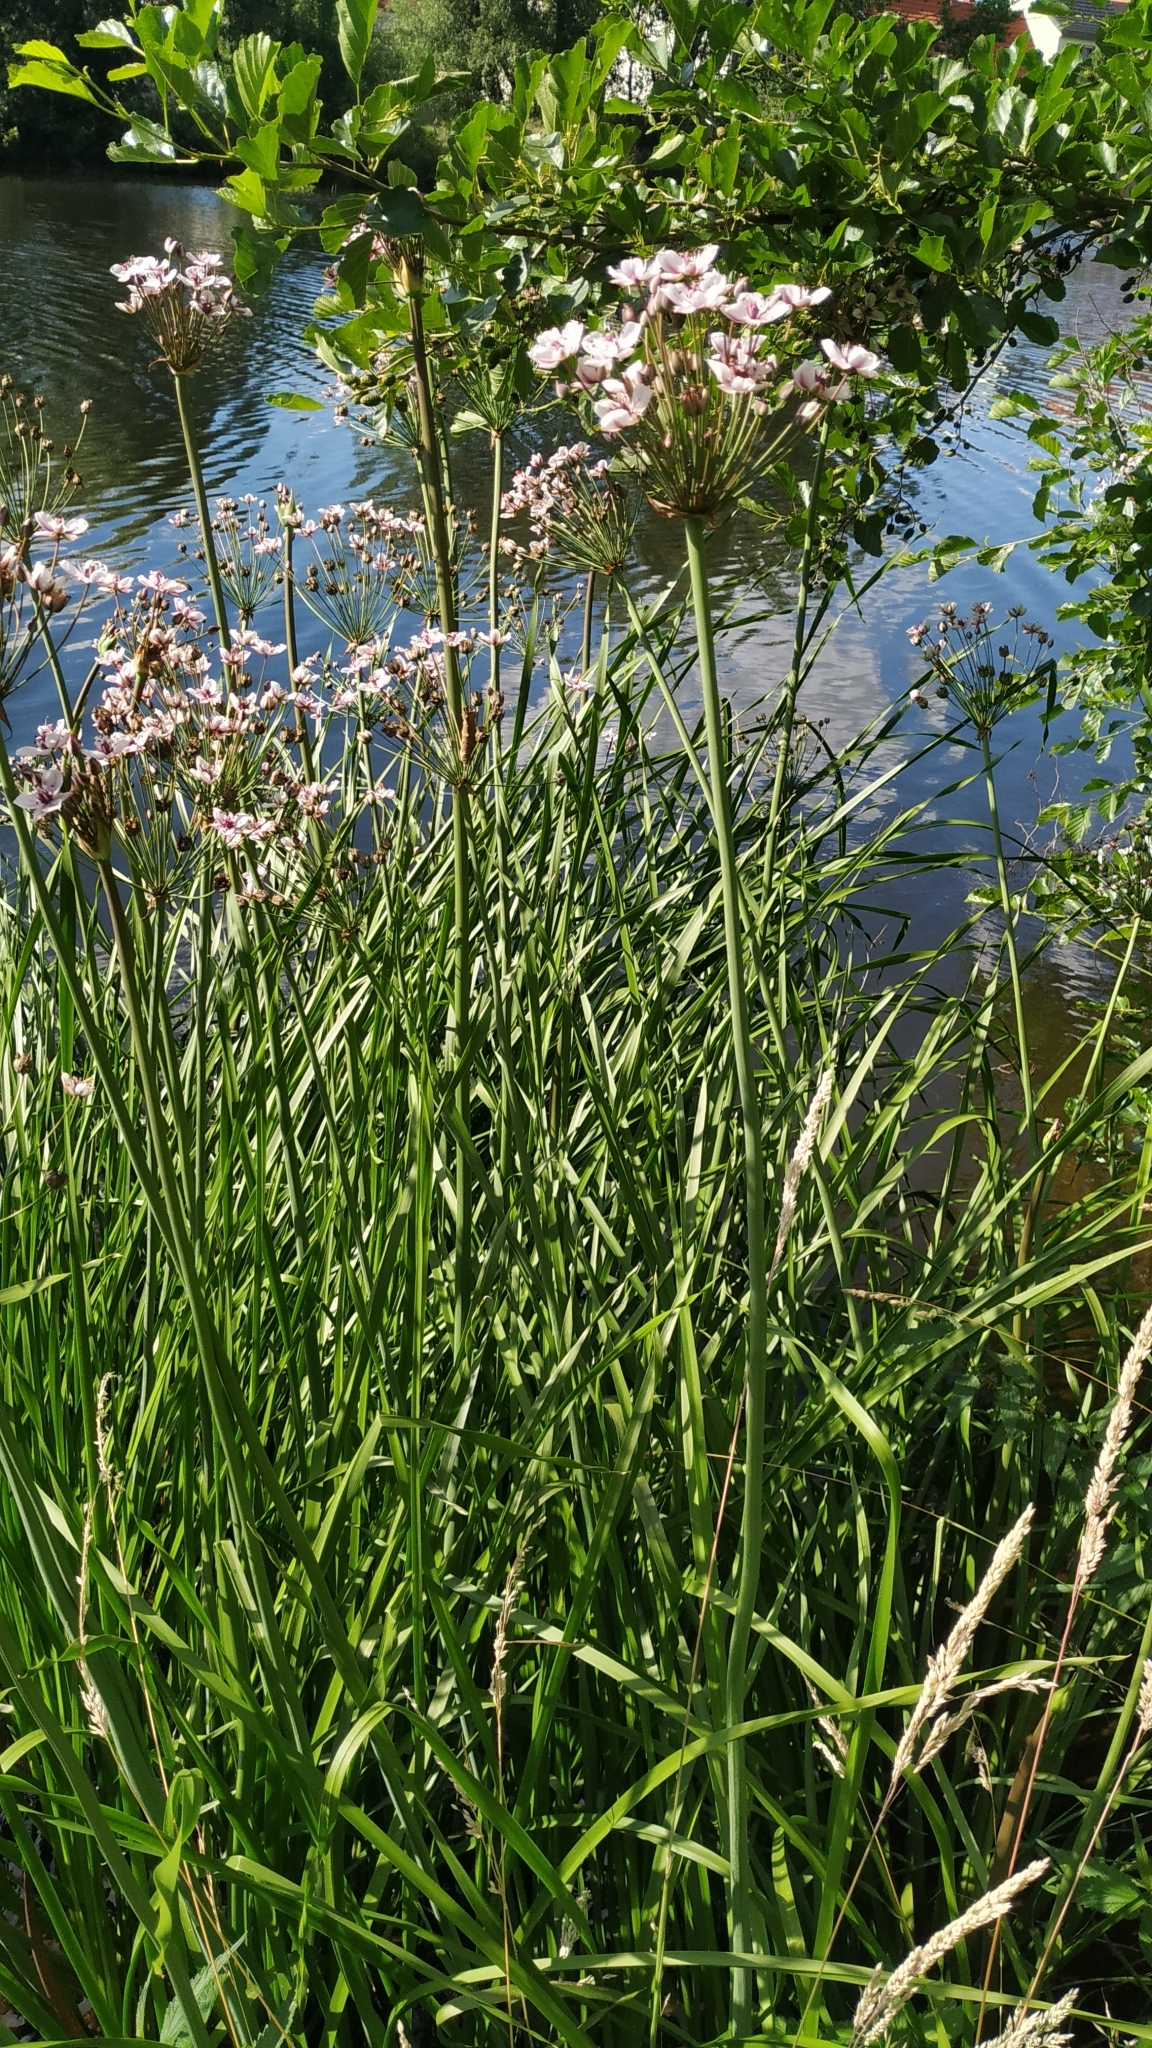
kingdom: Plantae
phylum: Tracheophyta
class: Liliopsida
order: Alismatales
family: Butomaceae
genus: Butomus
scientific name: Butomus umbellatus
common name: Flowering-rush
